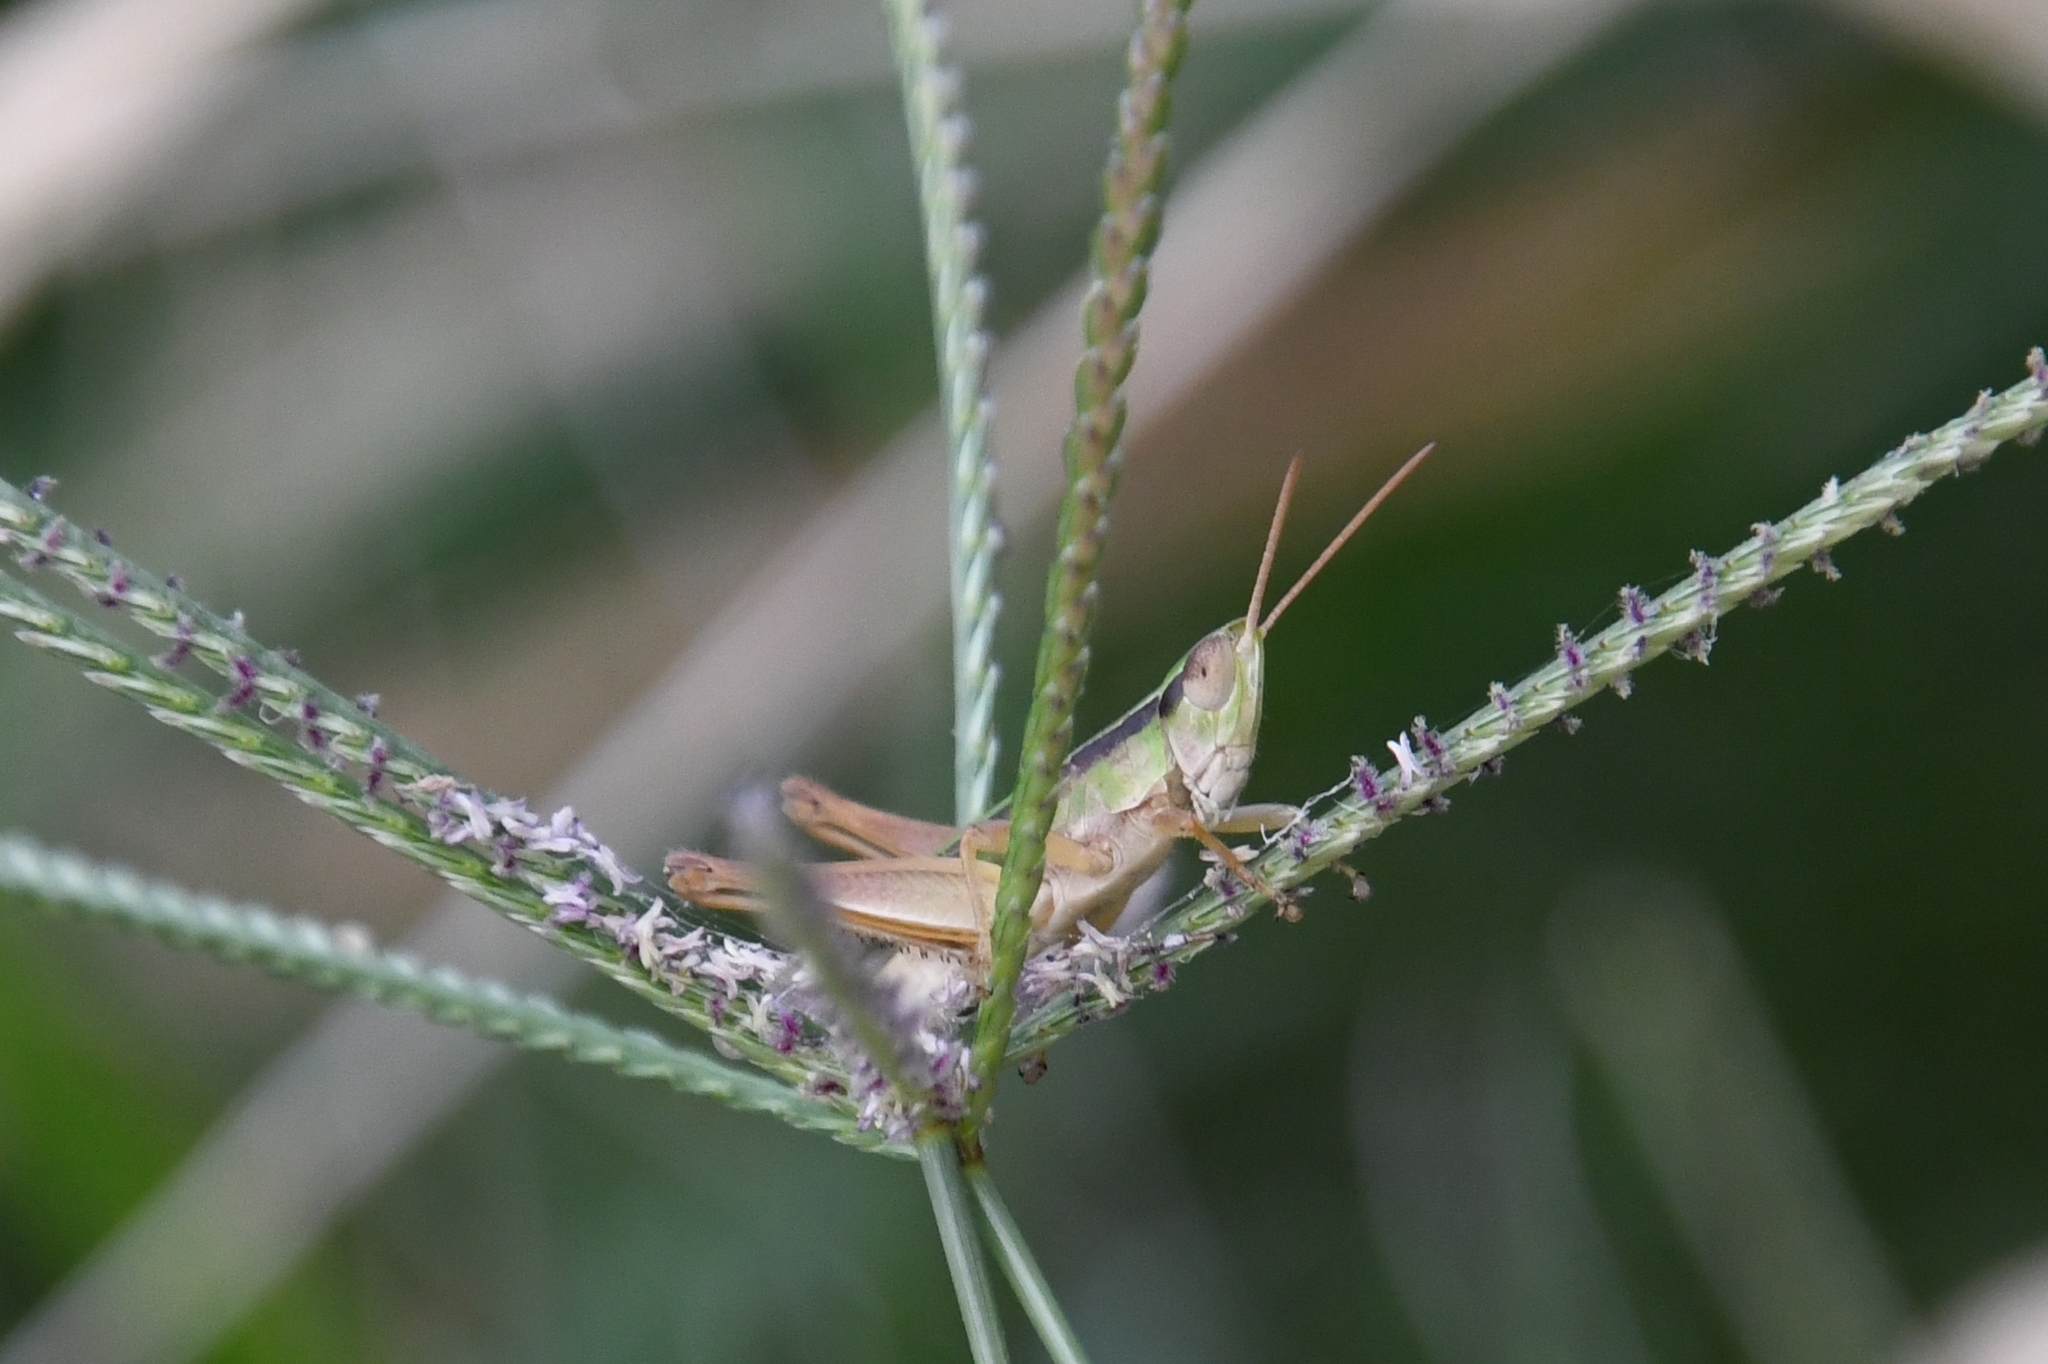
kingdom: Animalia
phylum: Arthropoda
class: Insecta
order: Orthoptera
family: Acrididae
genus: Dichromorpha
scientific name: Dichromorpha prominula
